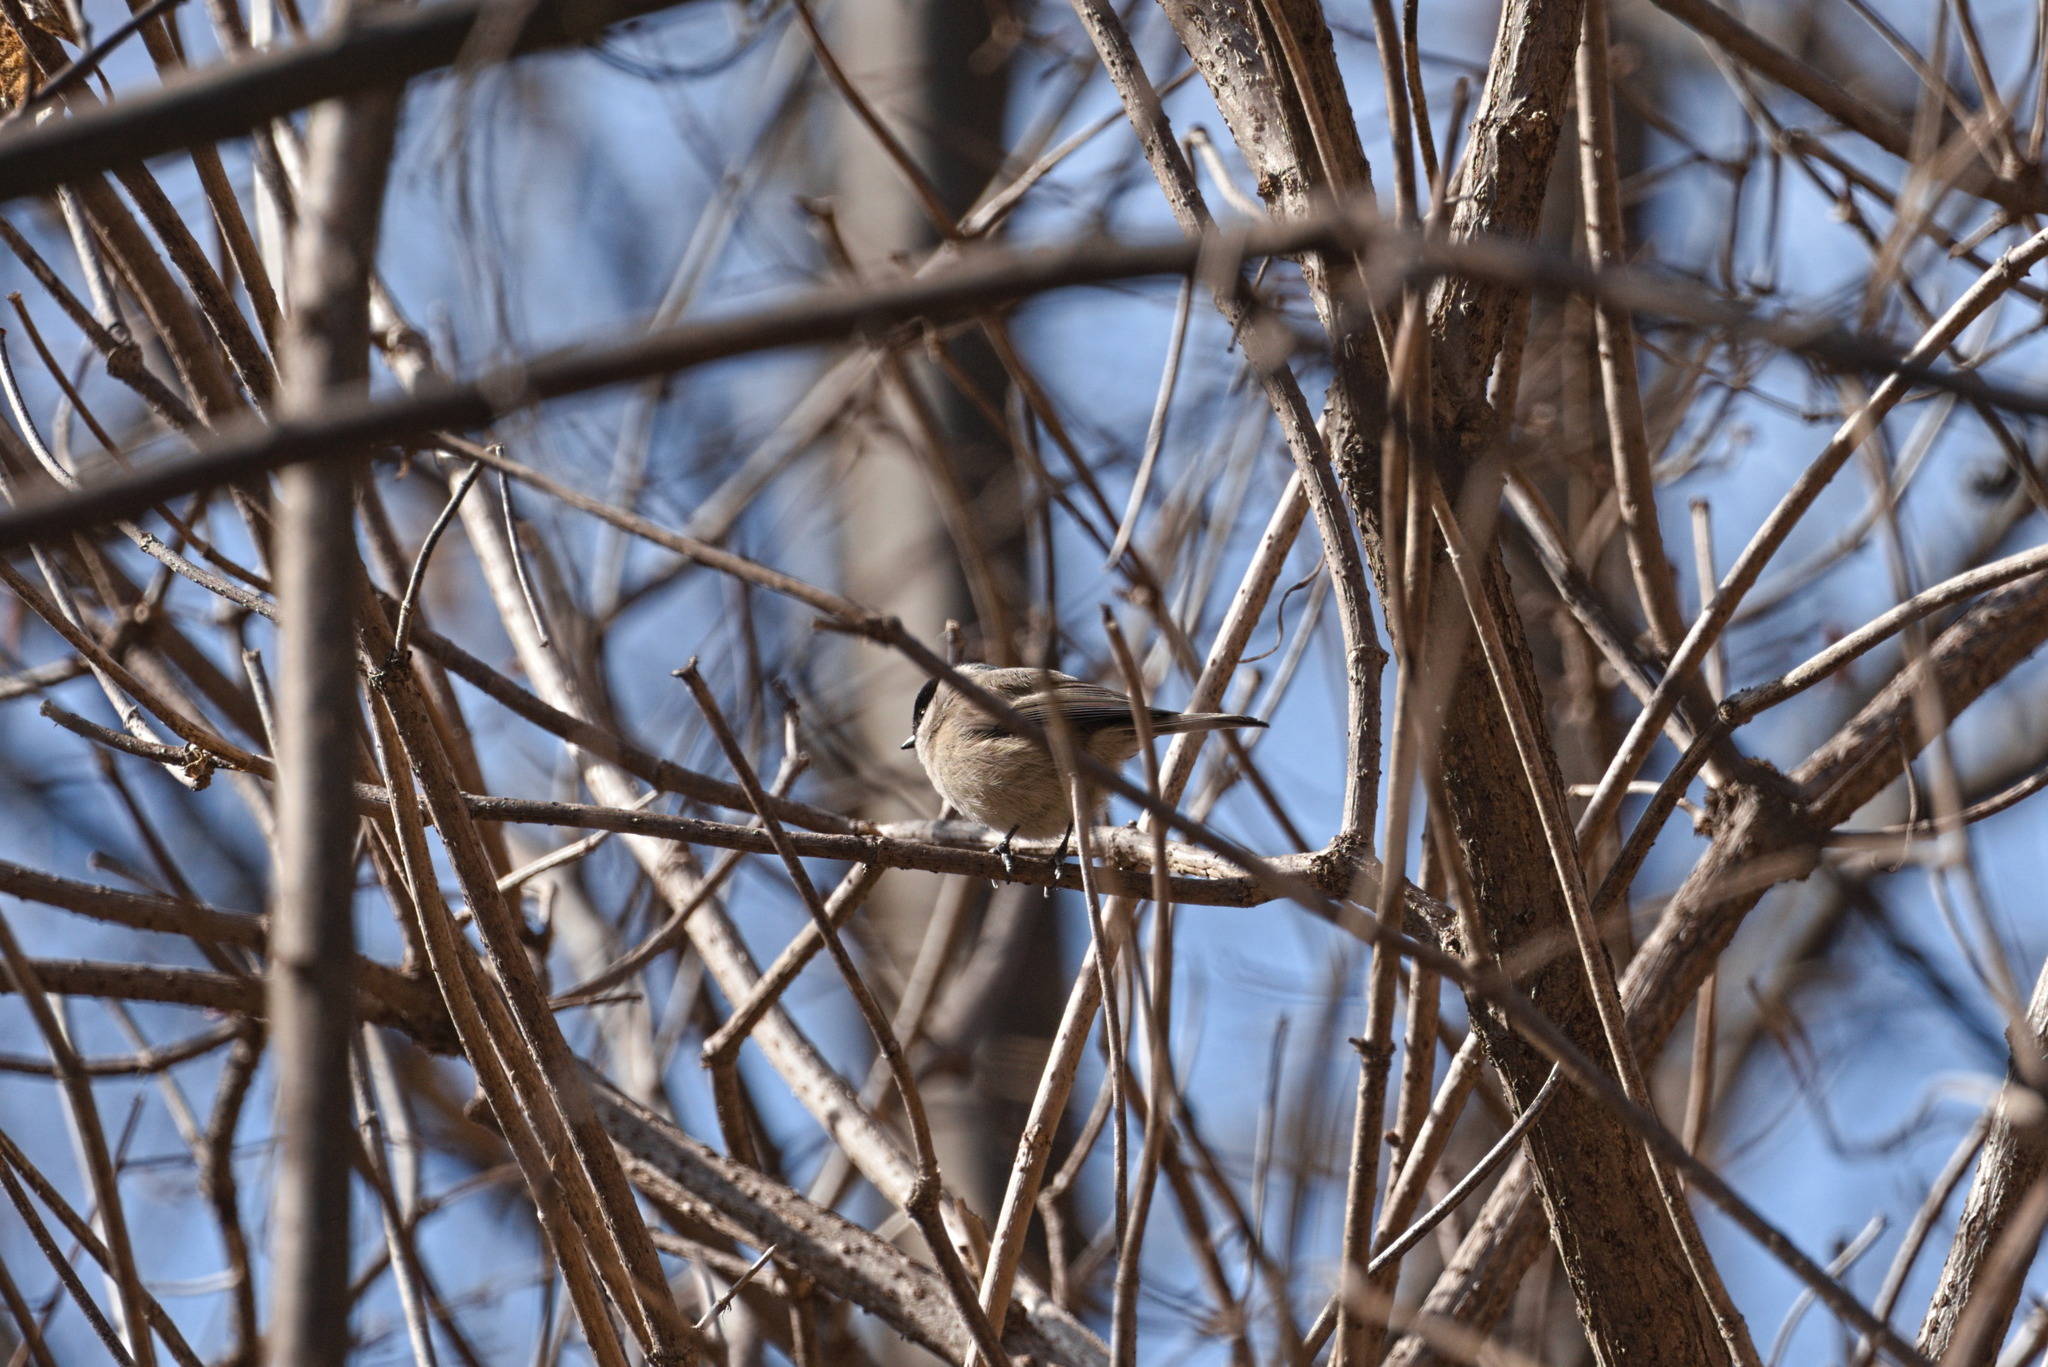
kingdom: Animalia
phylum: Chordata
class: Aves
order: Passeriformes
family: Paridae
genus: Poecile
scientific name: Poecile palustris
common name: Marsh tit
